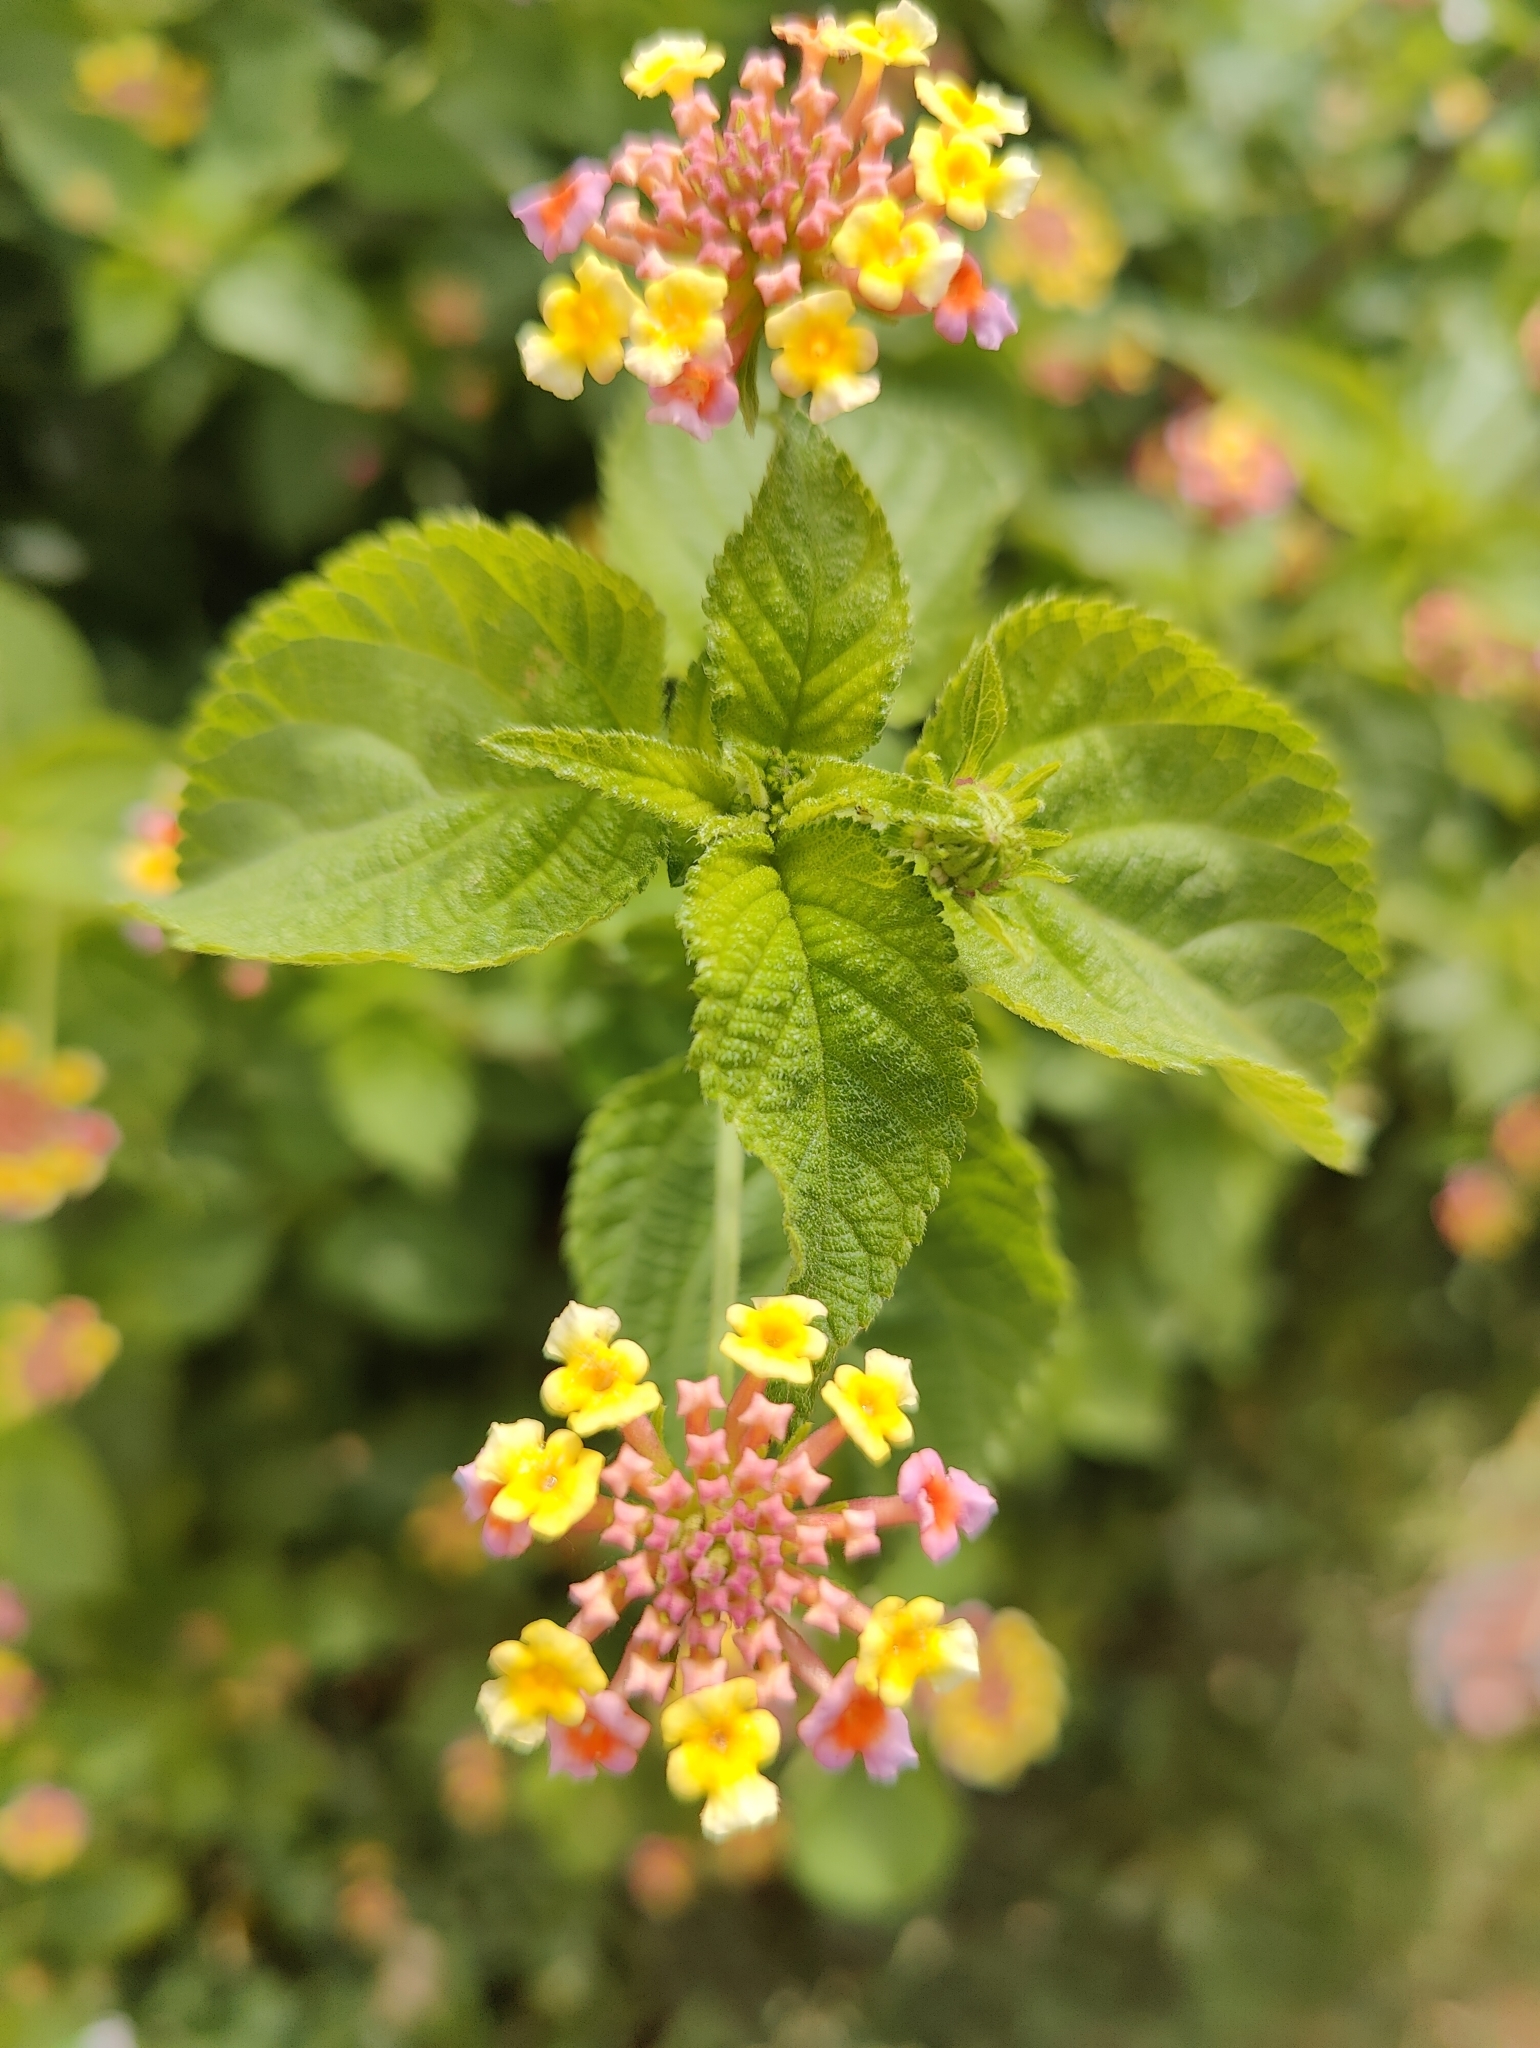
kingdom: Plantae
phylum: Tracheophyta
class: Magnoliopsida
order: Lamiales
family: Verbenaceae
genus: Lantana
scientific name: Lantana camara
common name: Lantana
